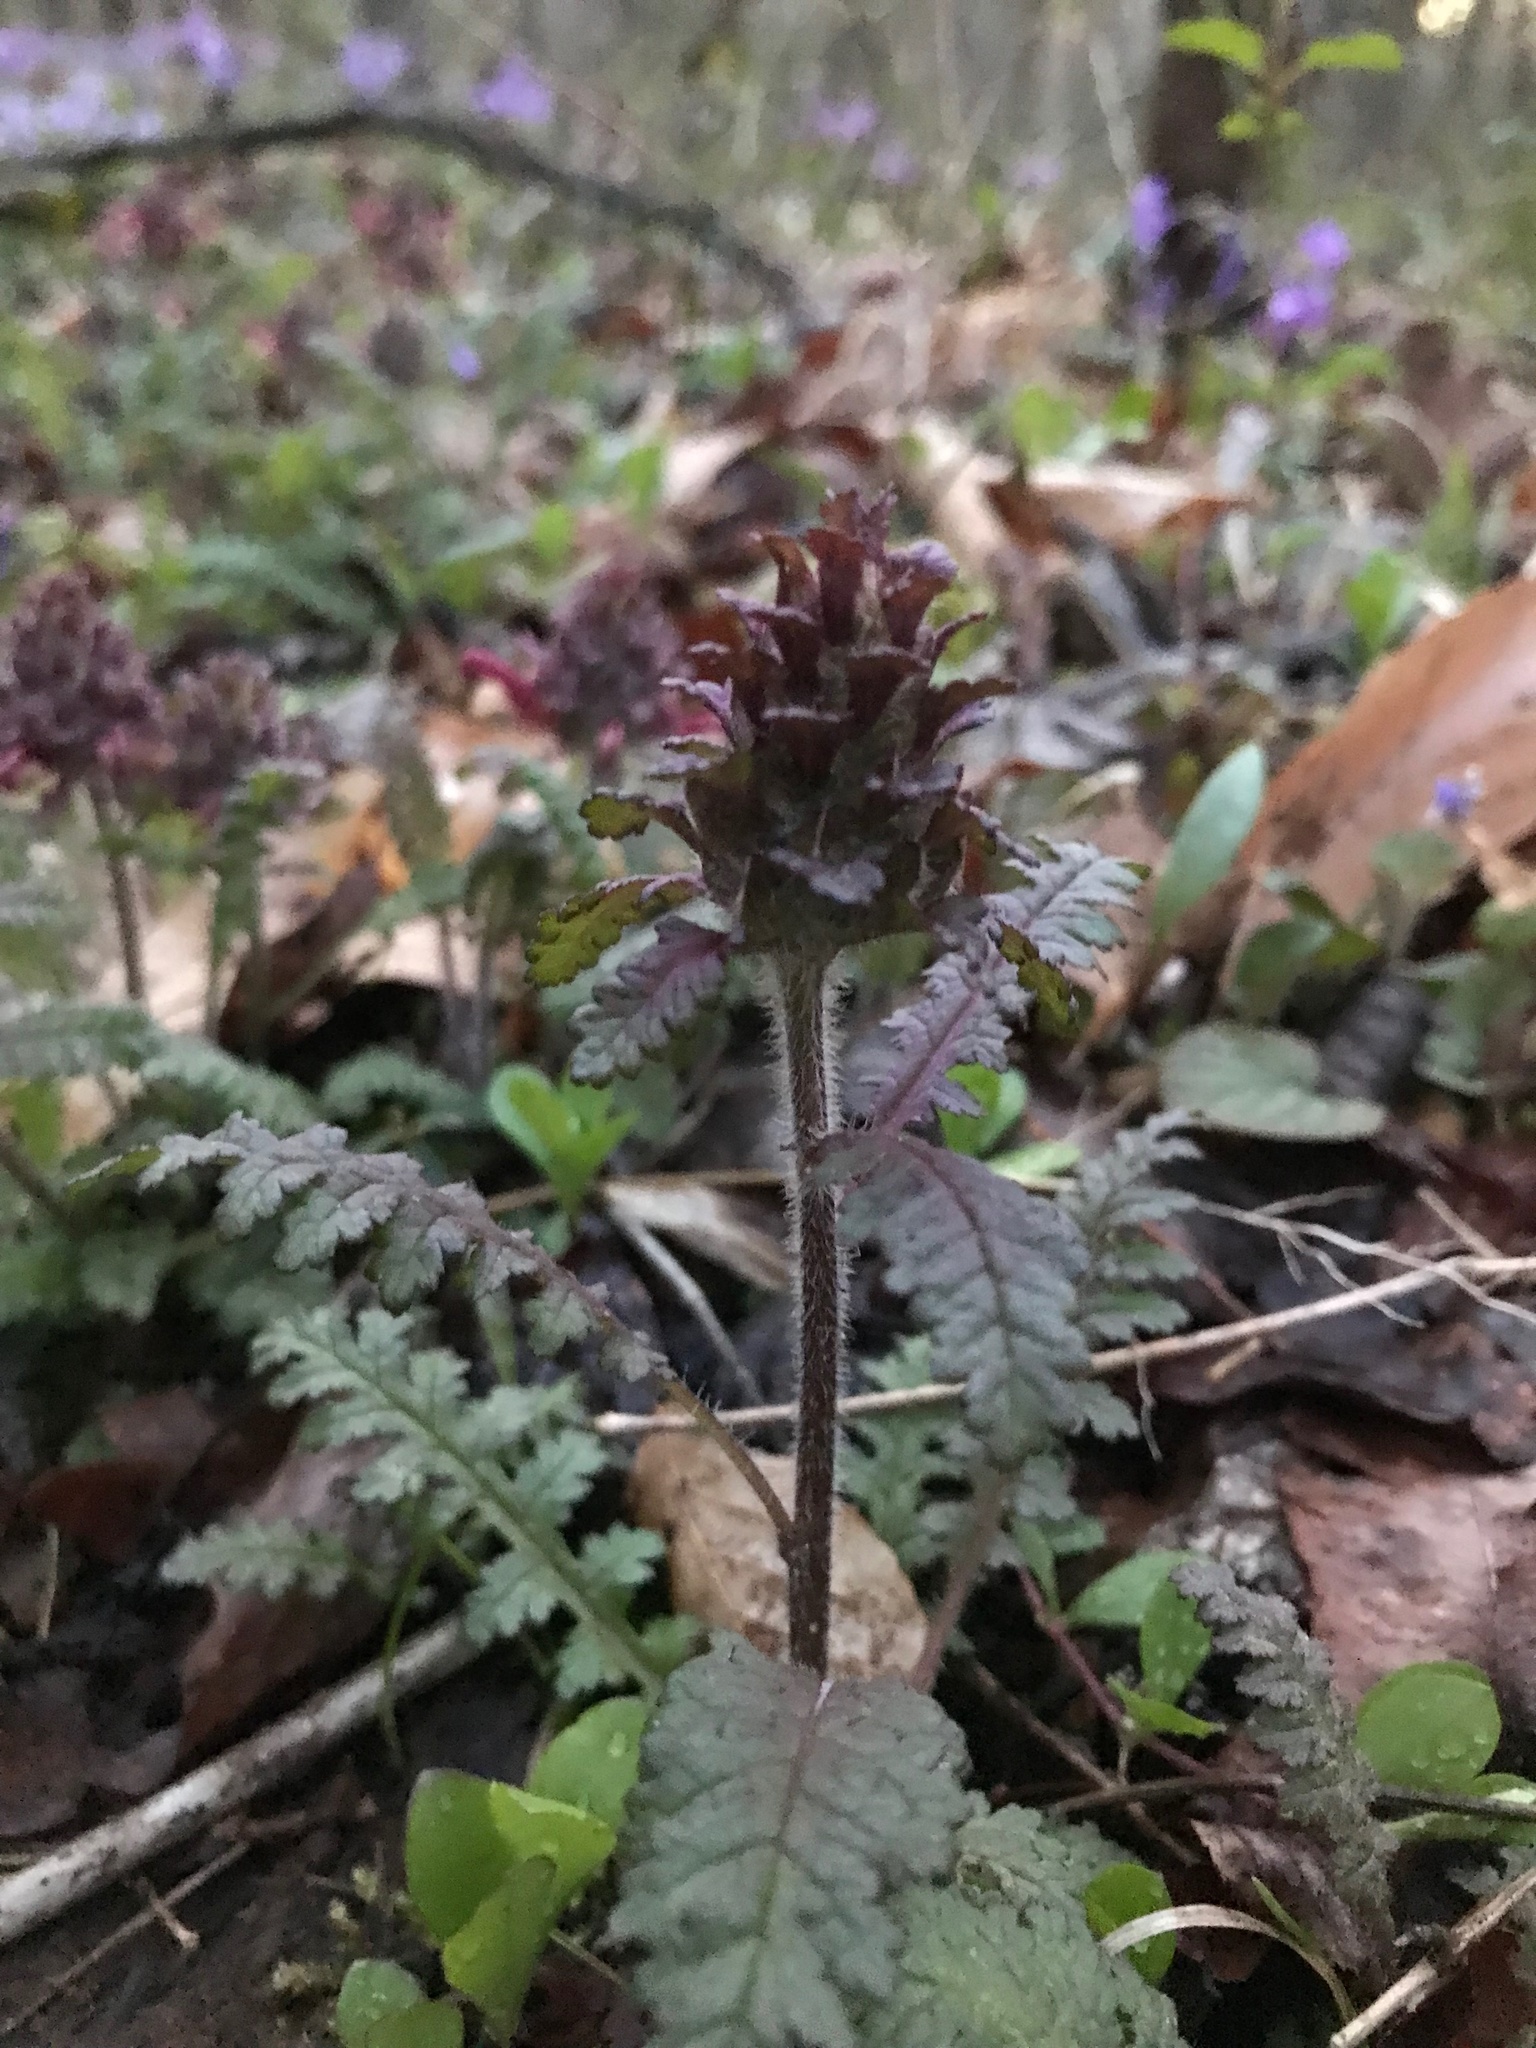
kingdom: Plantae
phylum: Tracheophyta
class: Magnoliopsida
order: Lamiales
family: Orobanchaceae
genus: Pedicularis
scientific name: Pedicularis canadensis
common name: Early lousewort
